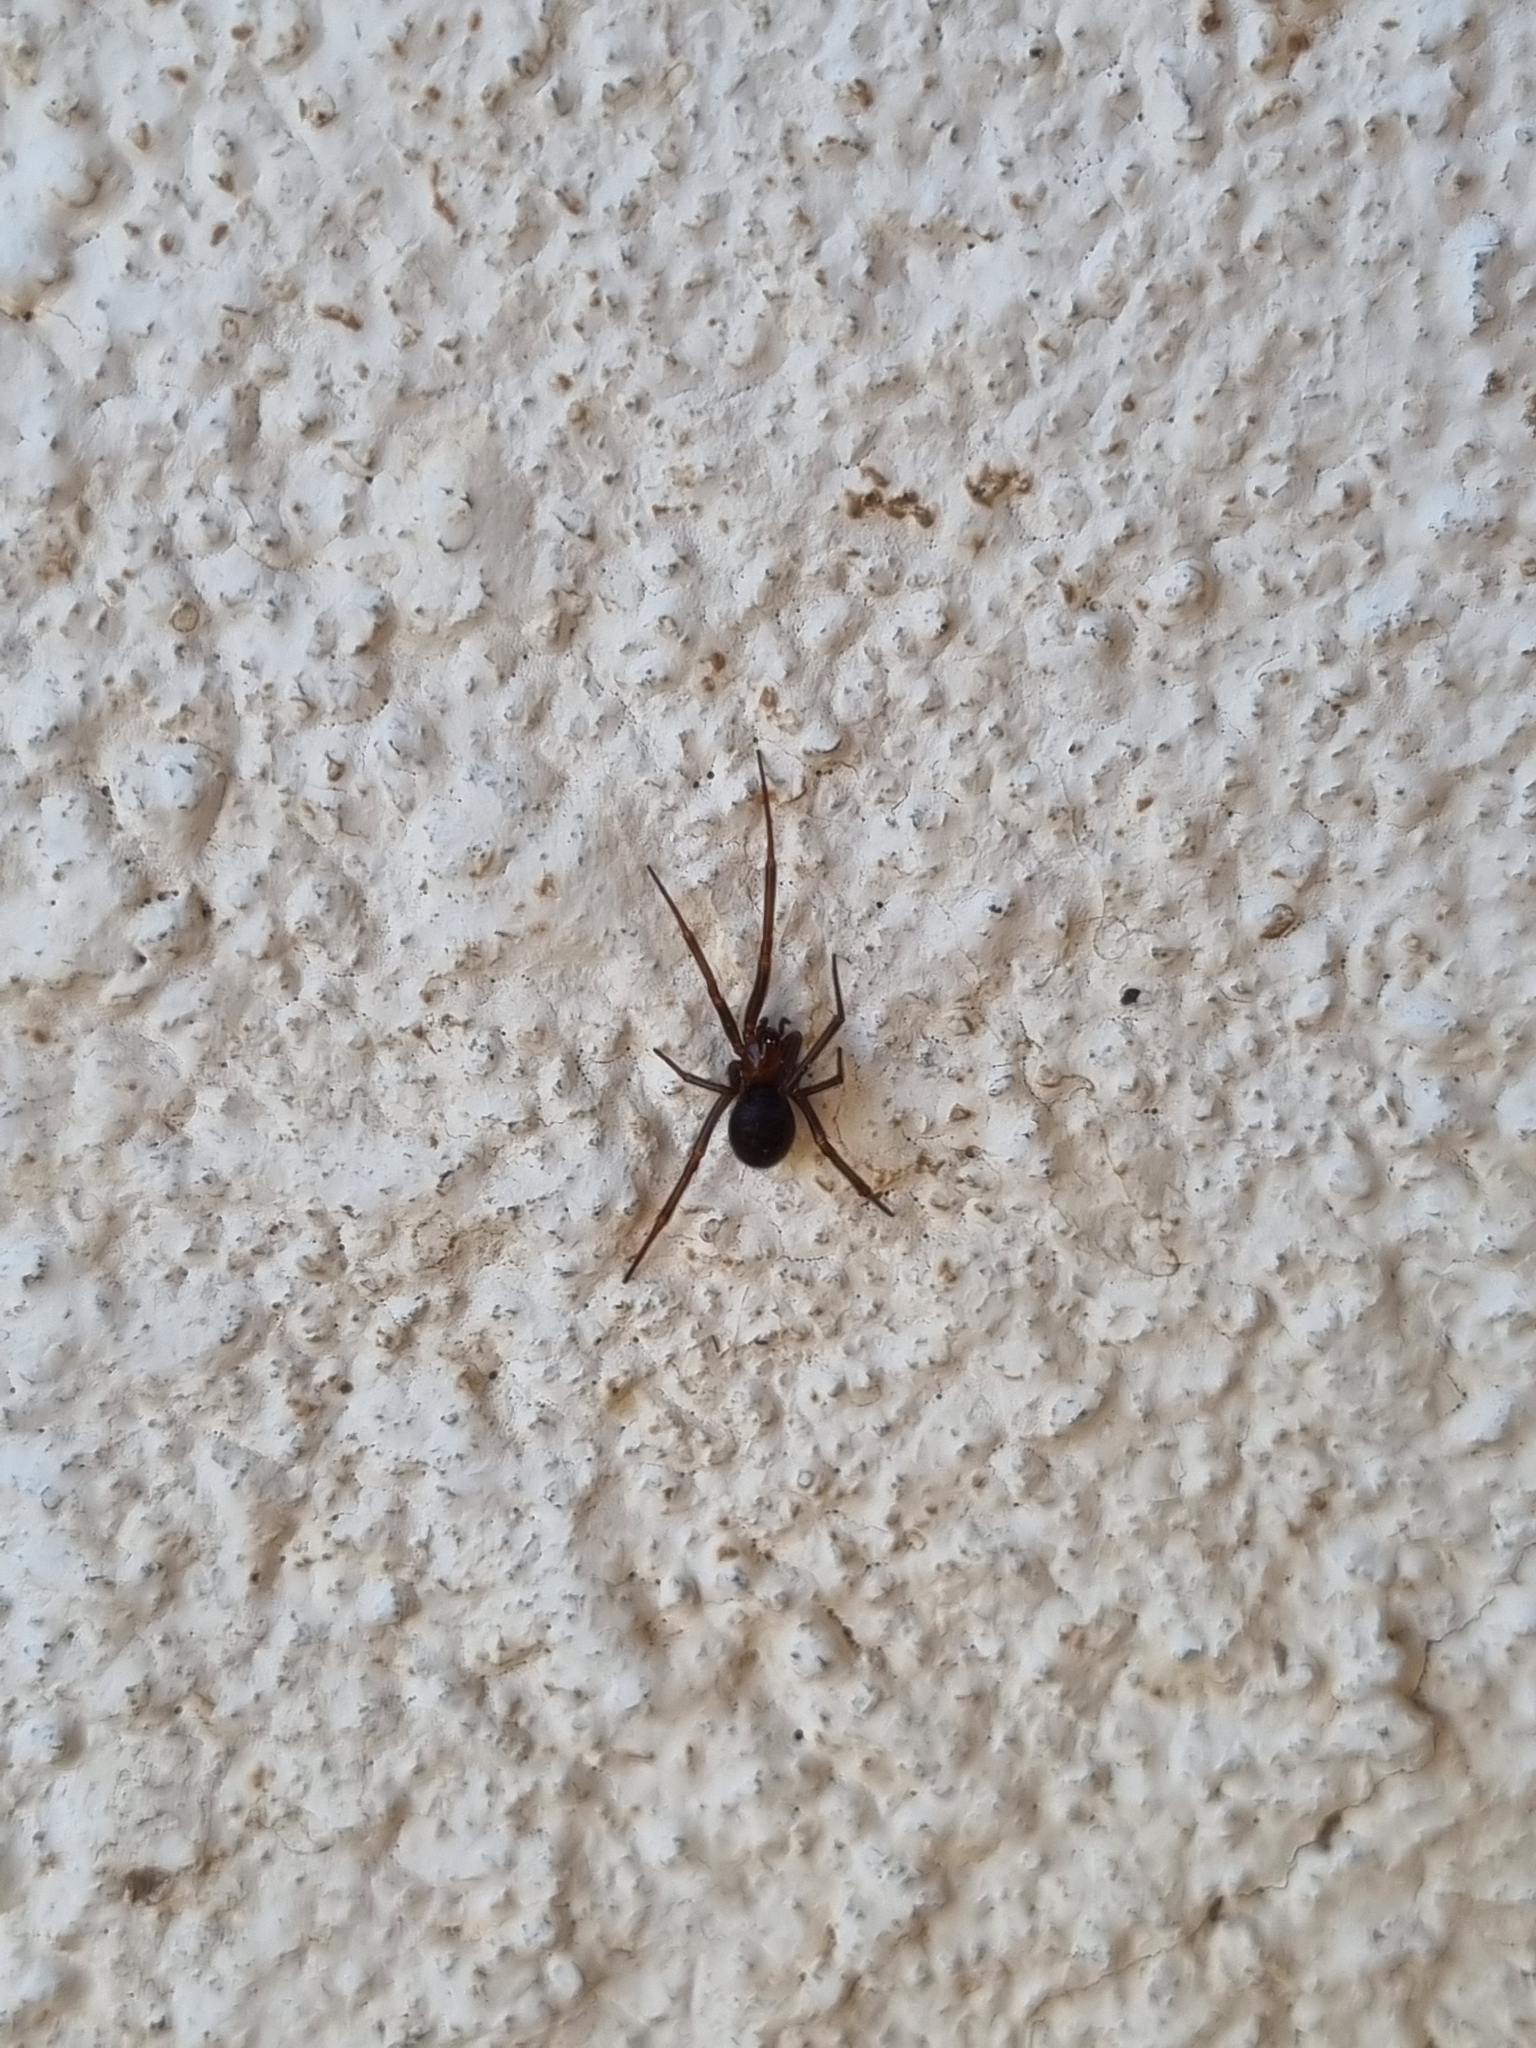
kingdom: Animalia
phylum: Arthropoda
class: Arachnida
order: Araneae
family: Theridiidae
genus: Steatoda
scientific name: Steatoda grossa
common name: False black widow
